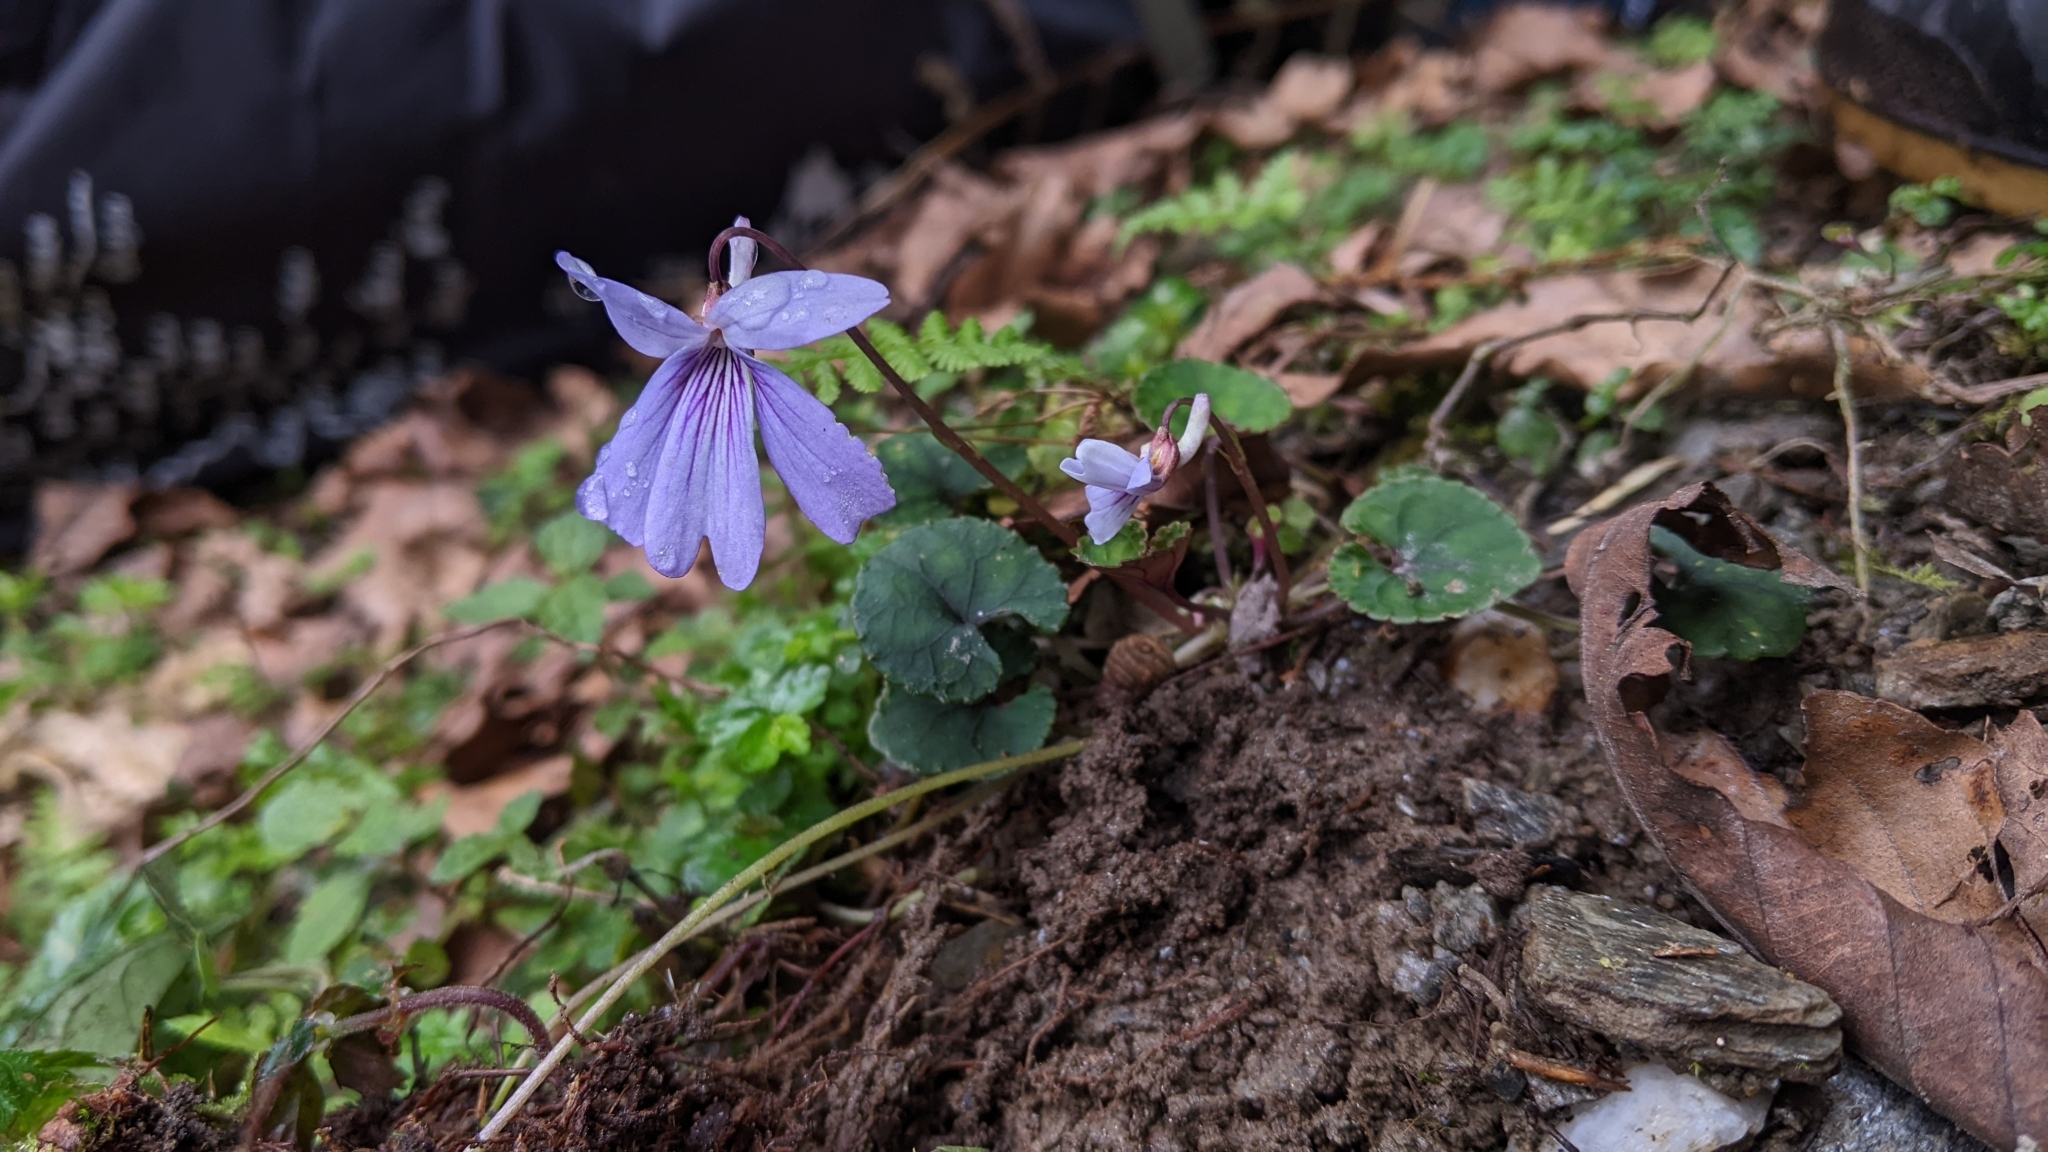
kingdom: Plantae
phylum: Tracheophyta
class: Magnoliopsida
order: Malpighiales
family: Violaceae
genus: Viola
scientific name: Viola formosana
